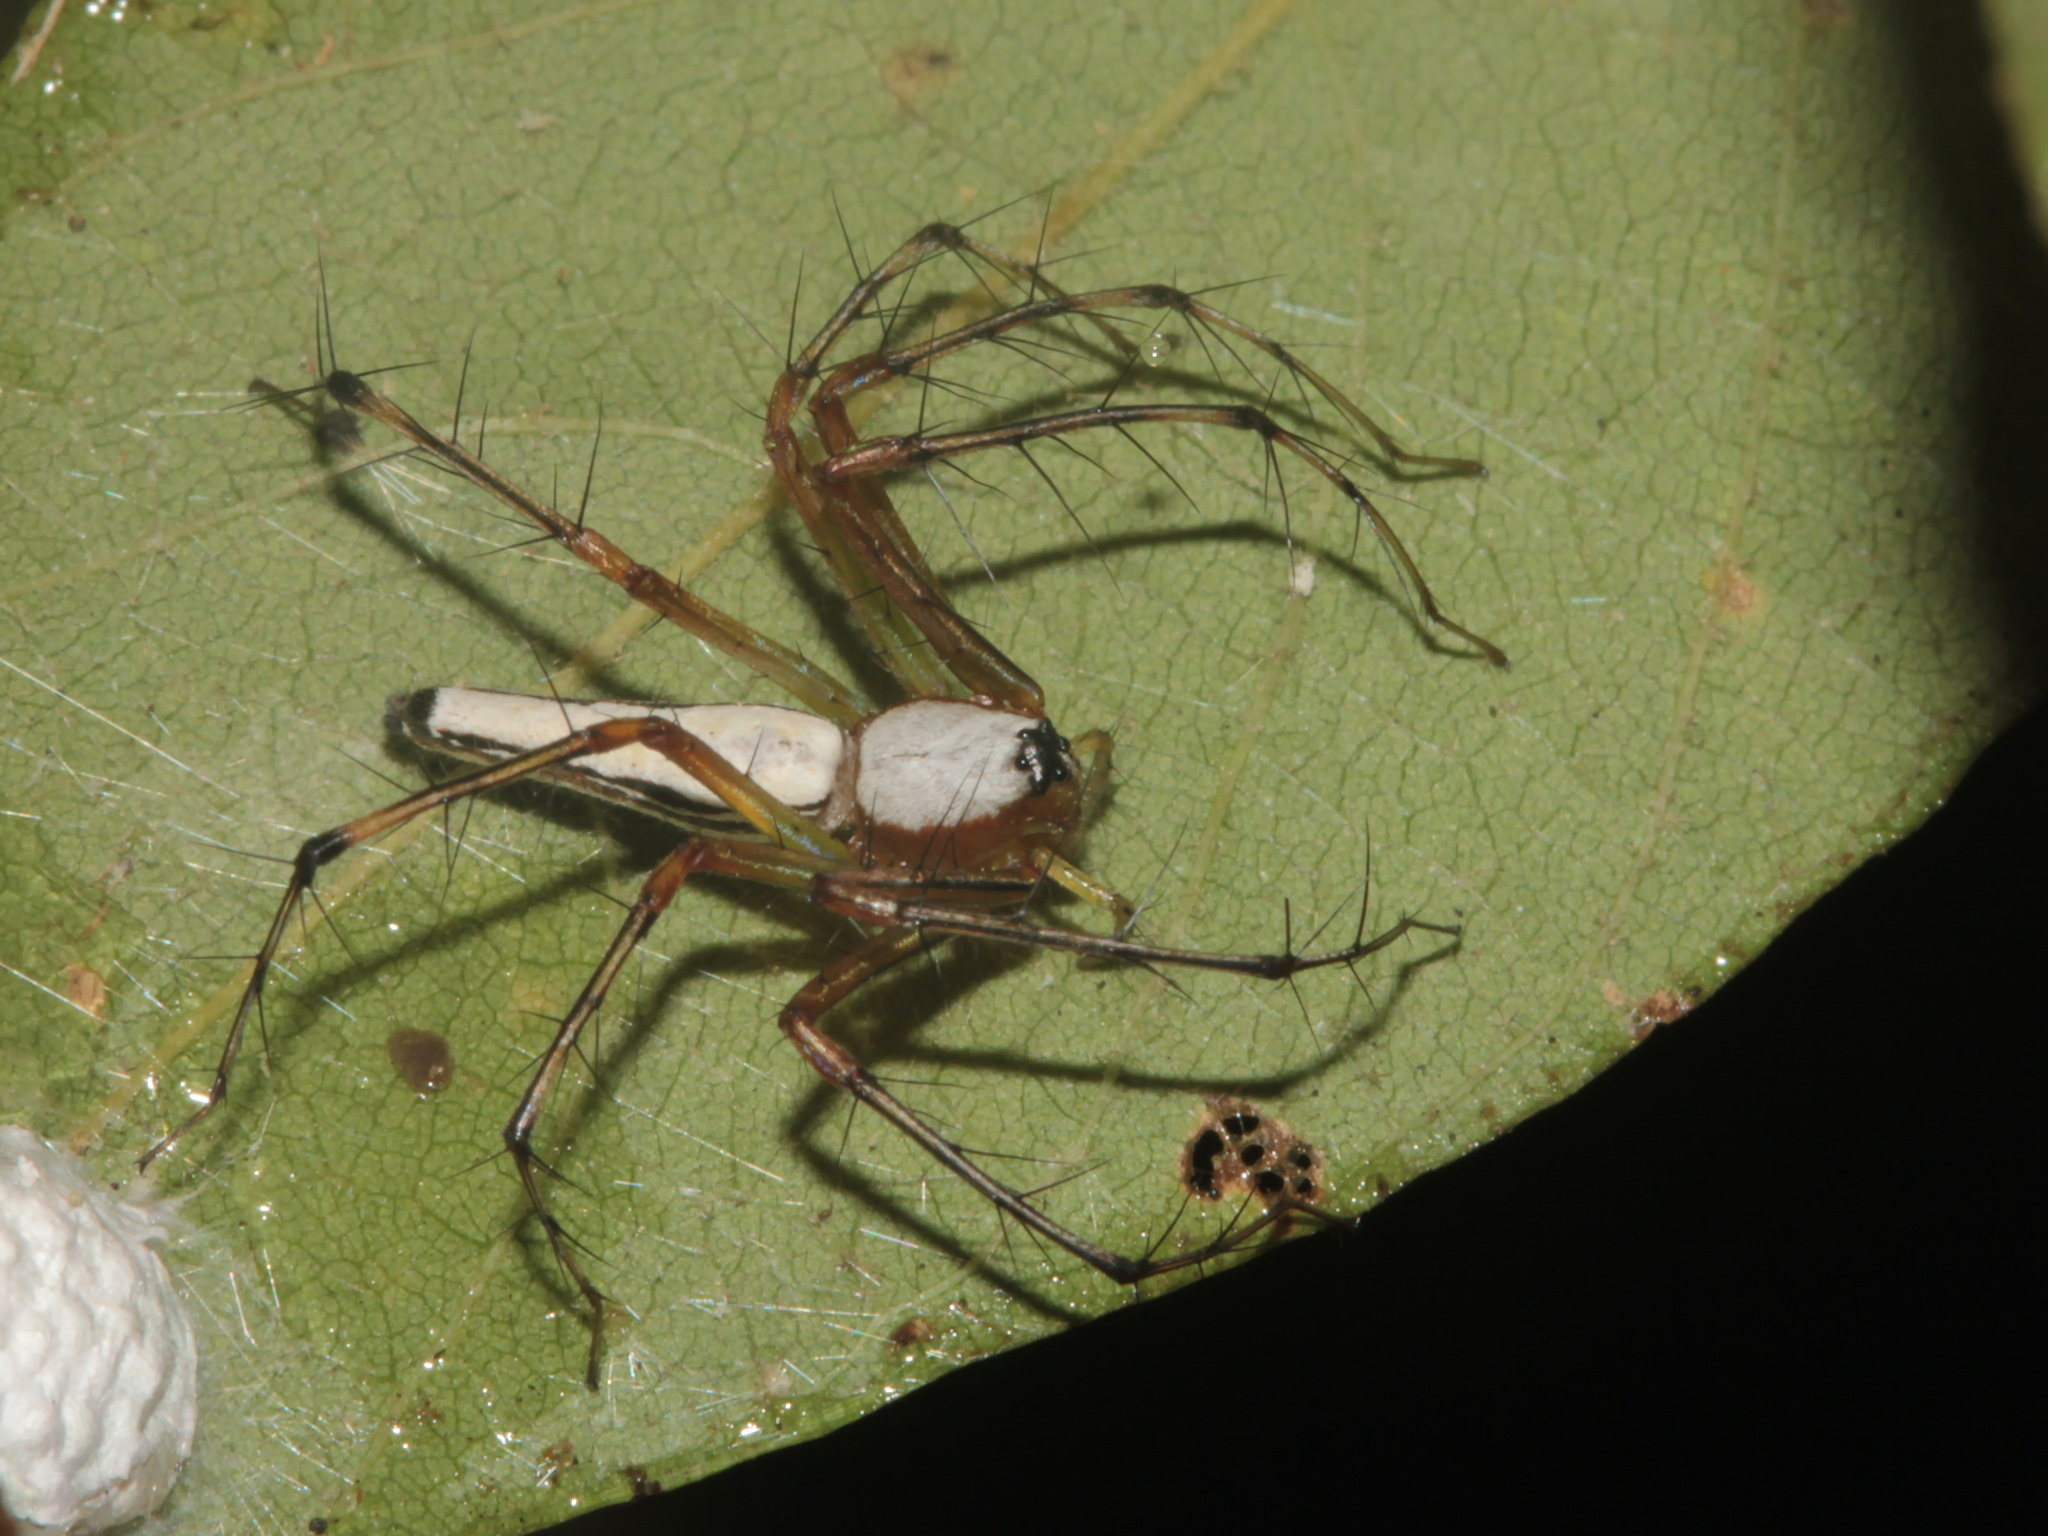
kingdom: Animalia
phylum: Arthropoda
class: Arachnida
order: Araneae
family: Oxyopidae
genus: Oxyopes
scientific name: Oxyopes shweta
